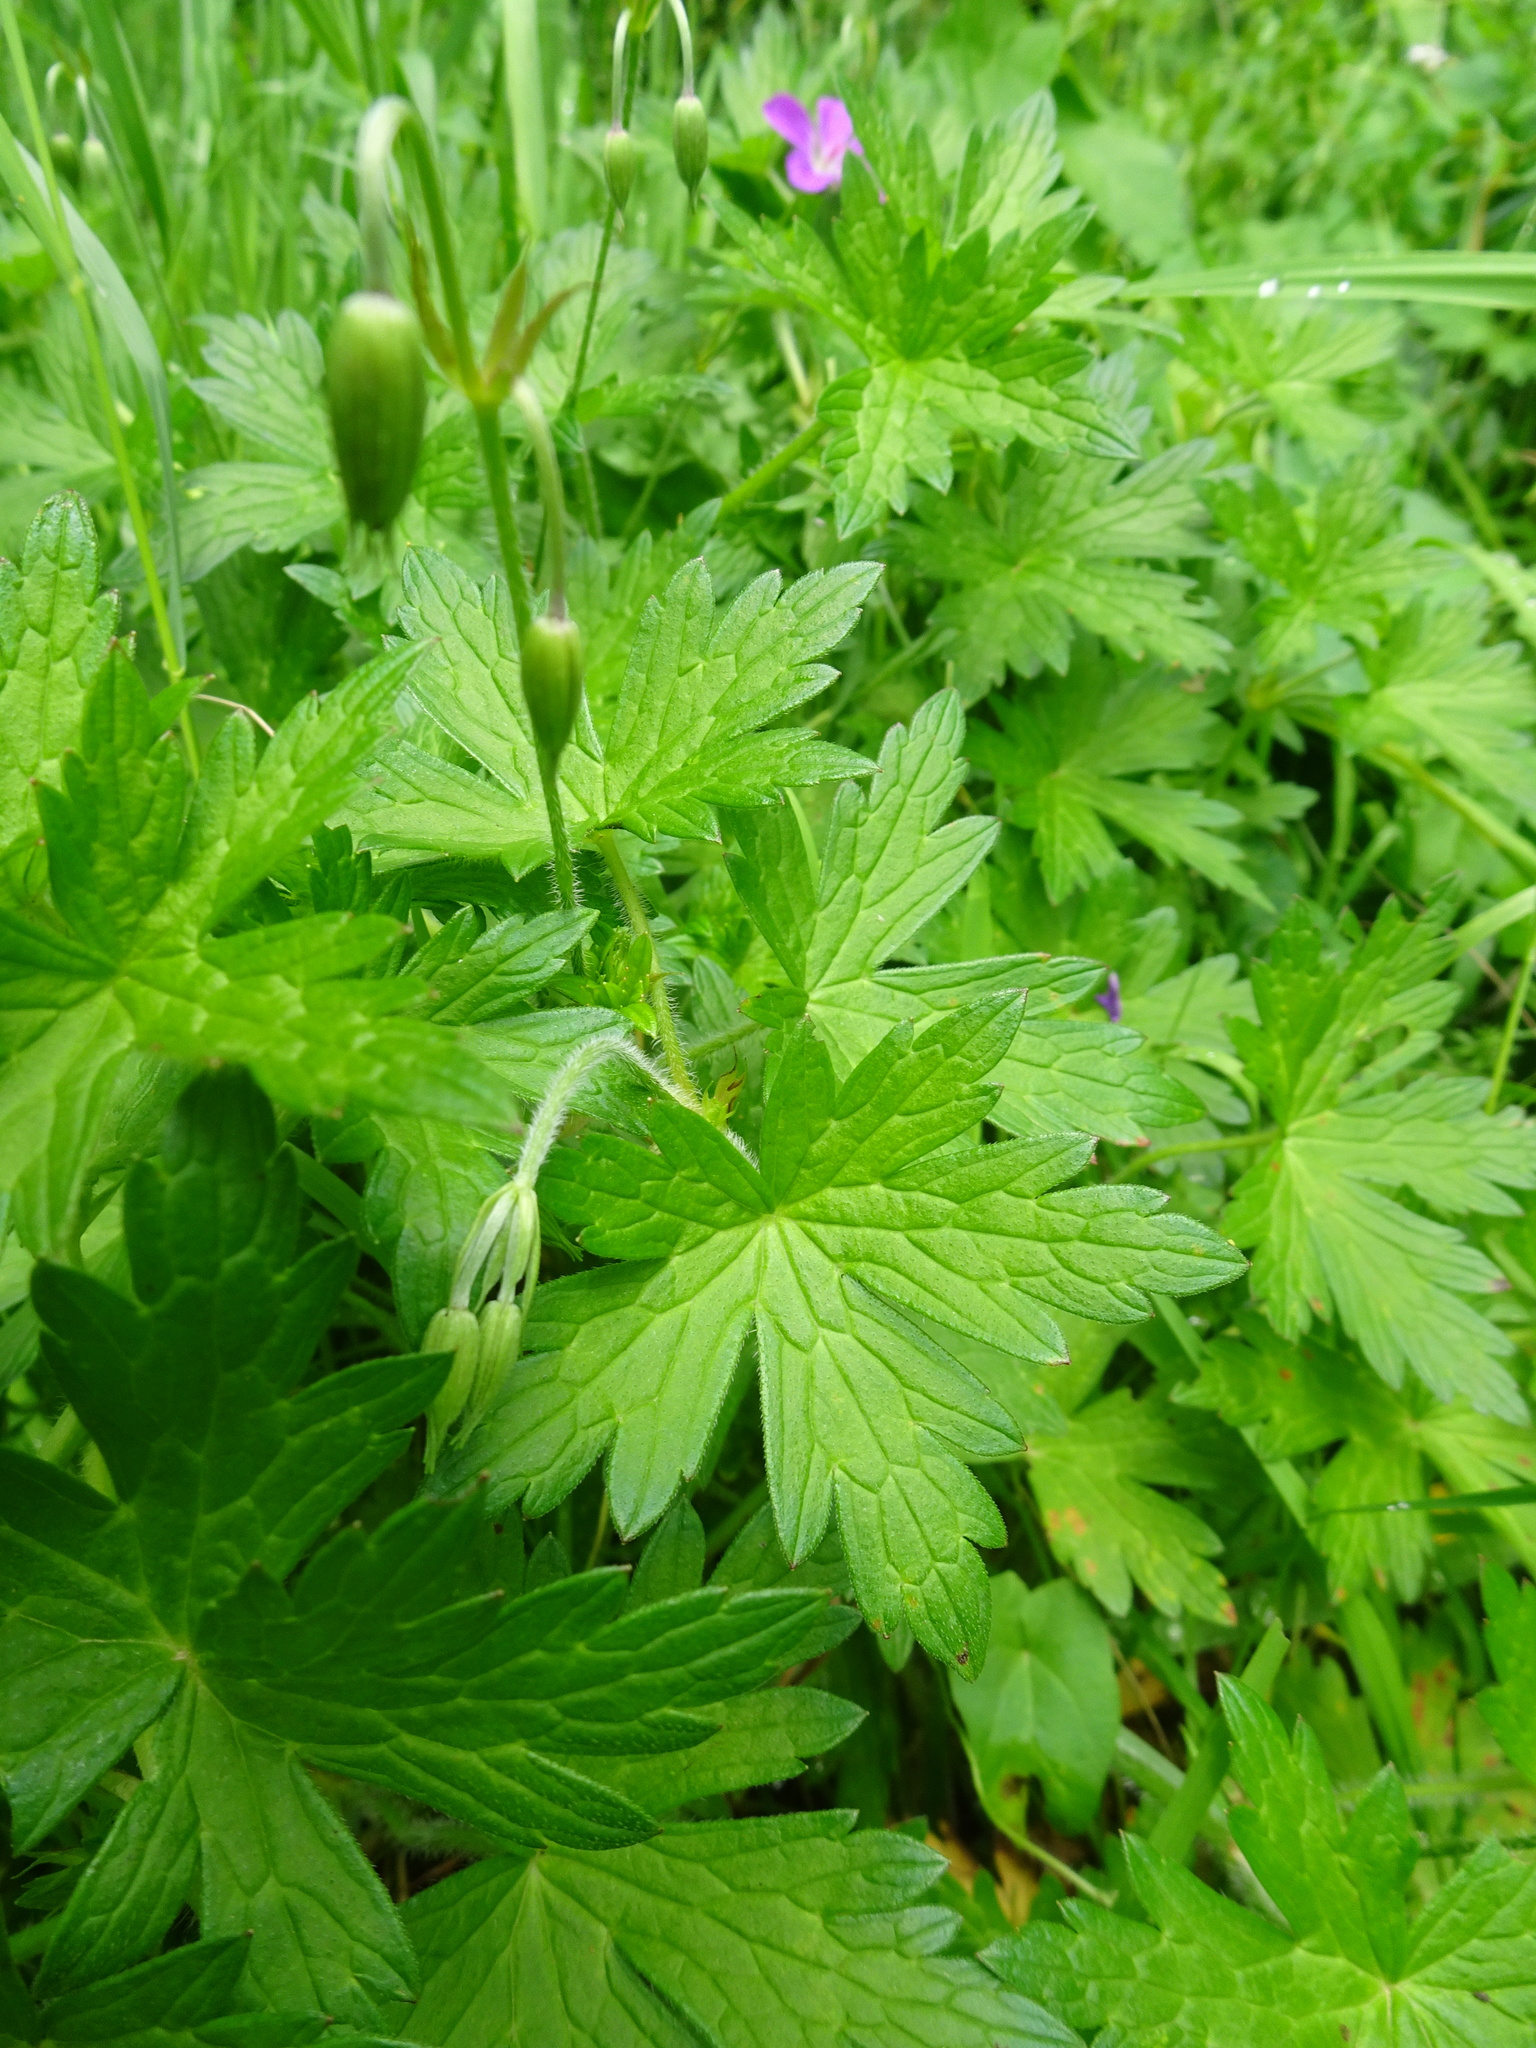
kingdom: Plantae
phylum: Tracheophyta
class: Magnoliopsida
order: Geraniales
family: Geraniaceae
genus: Geranium
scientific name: Geranium palustre
